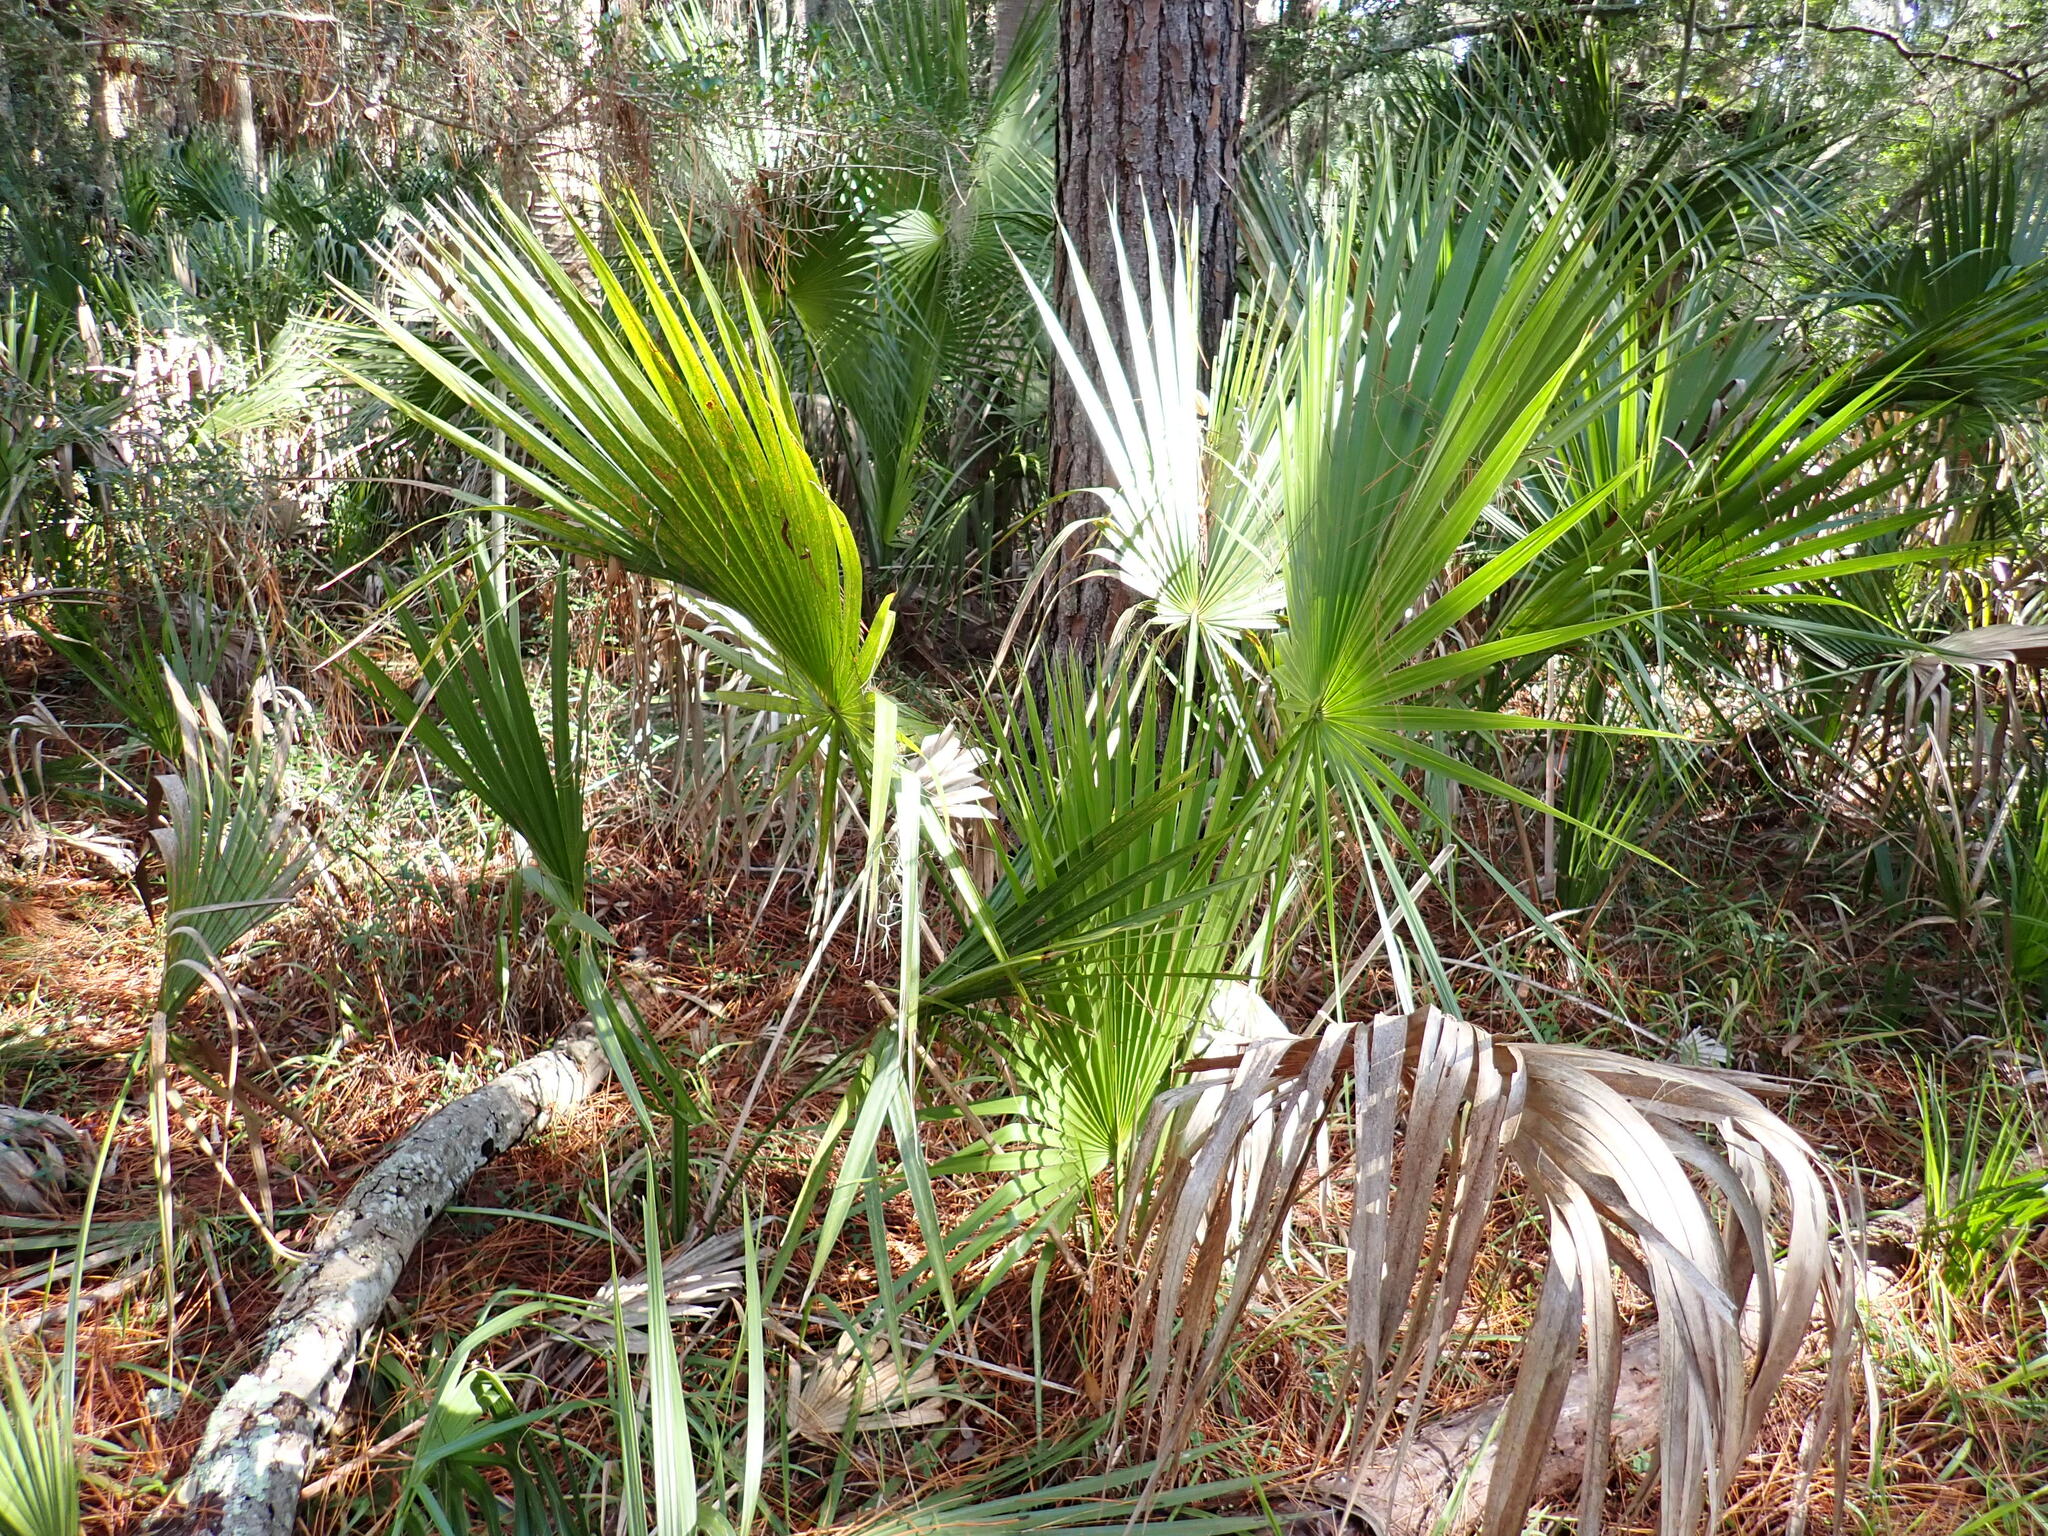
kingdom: Plantae
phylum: Tracheophyta
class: Liliopsida
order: Arecales
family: Arecaceae
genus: Sabal
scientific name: Sabal minor
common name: Dwarf palmetto
